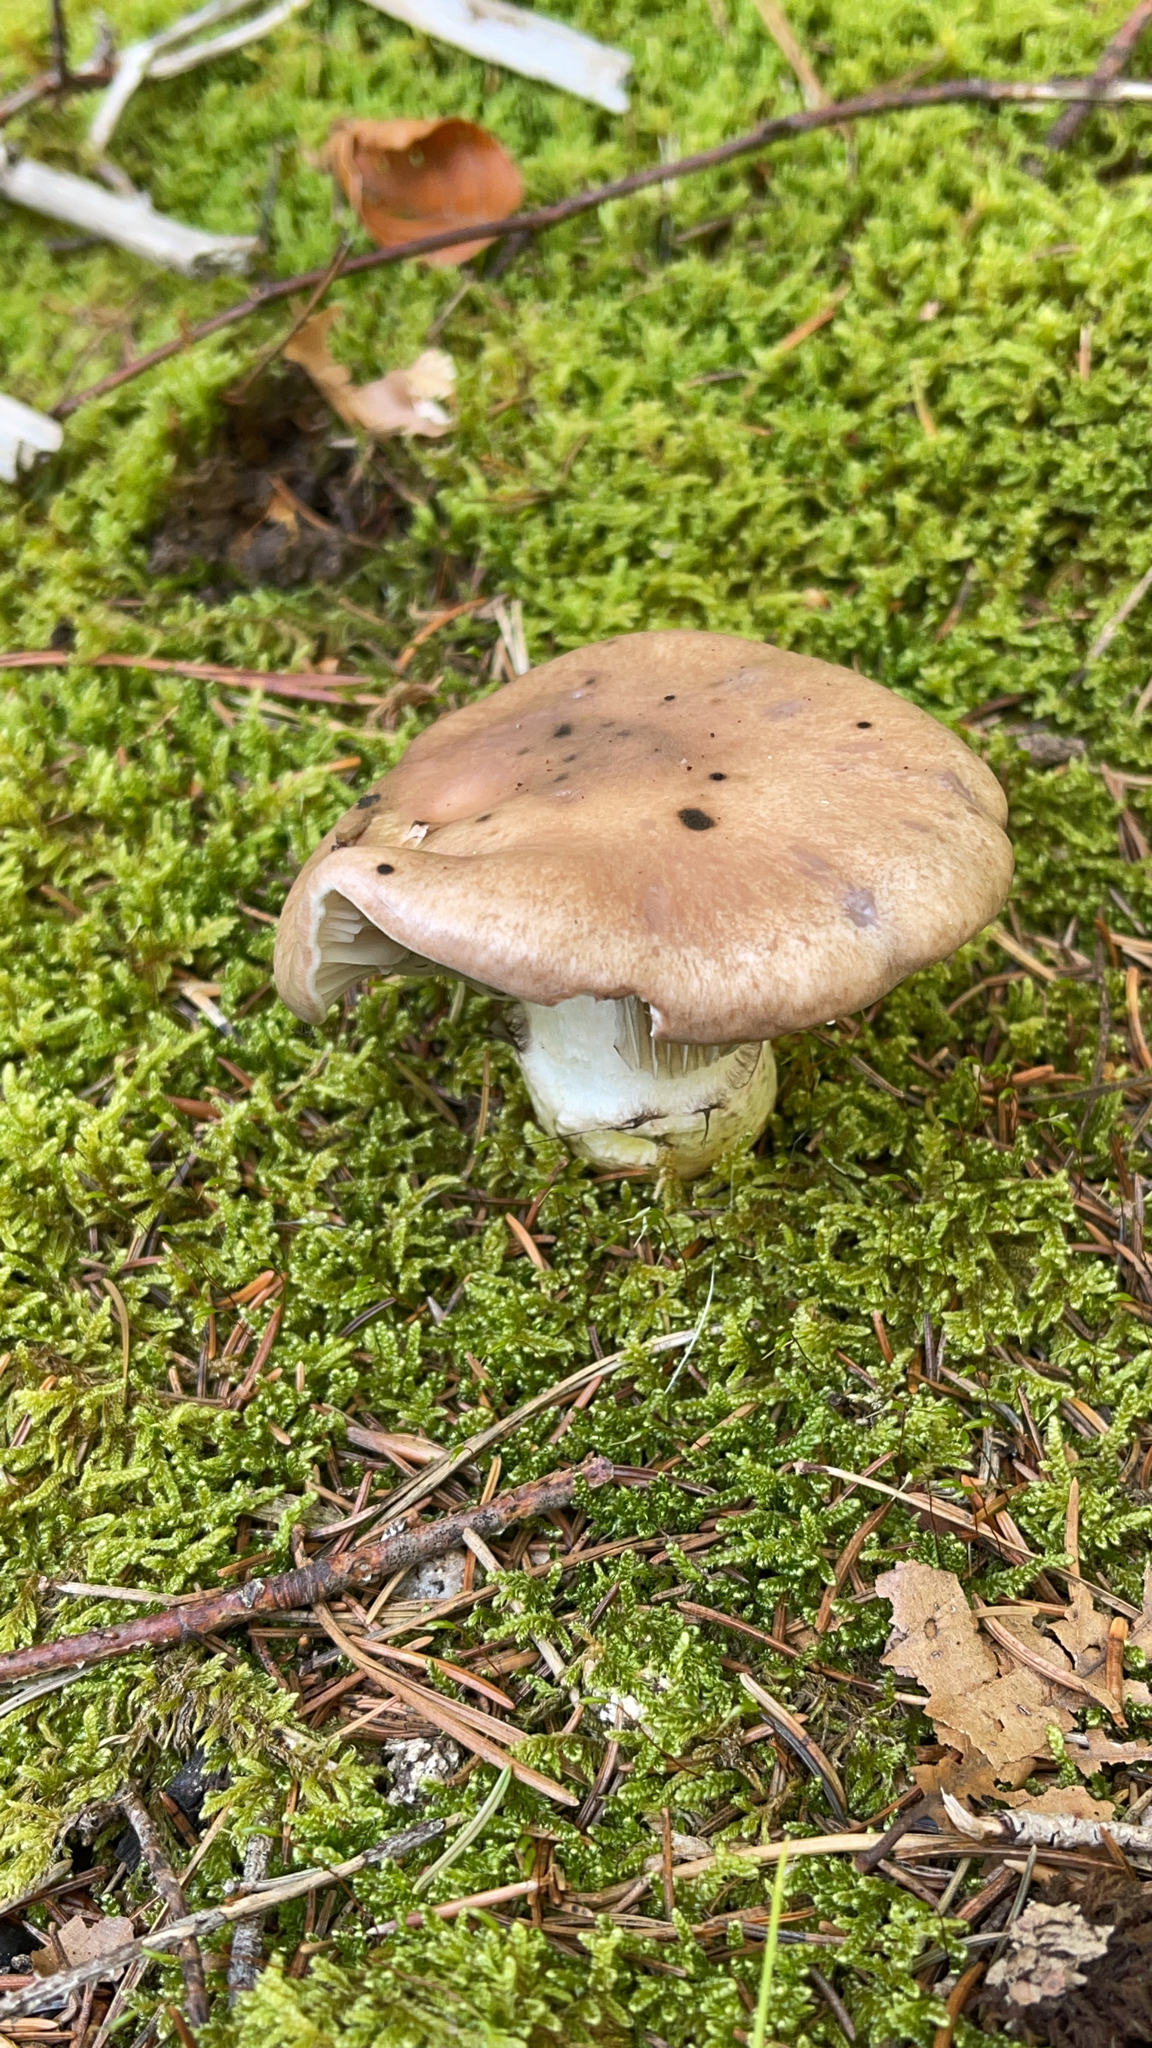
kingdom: Fungi
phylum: Basidiomycota
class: Agaricomycetes
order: Boletales
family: Gomphidiaceae
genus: Gomphidius
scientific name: Gomphidius glutinosus
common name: Slimy spike
